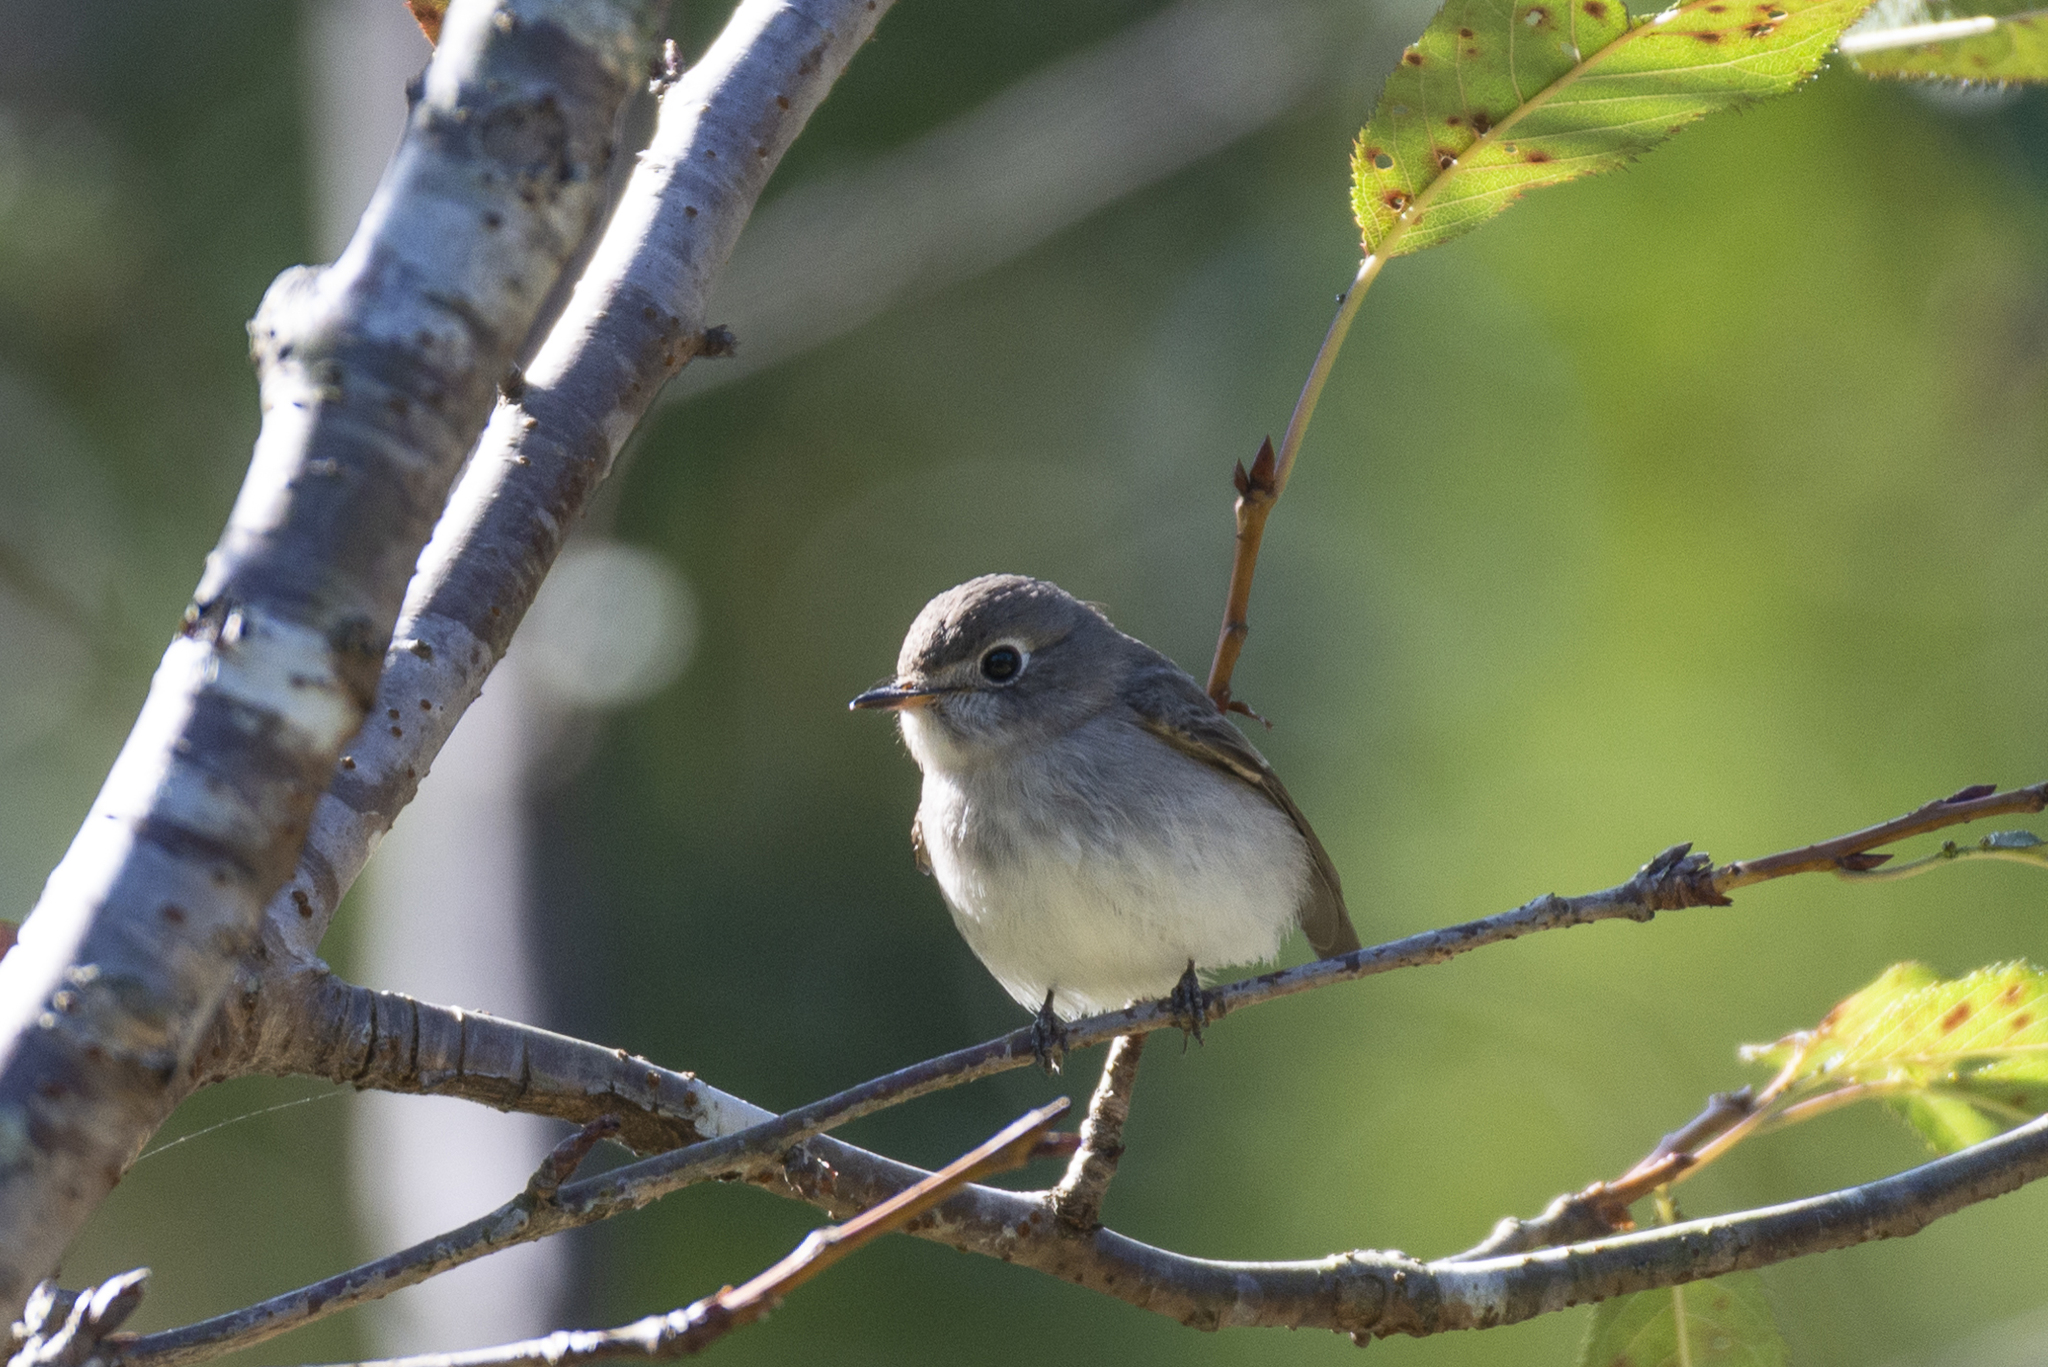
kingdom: Animalia
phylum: Chordata
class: Aves
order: Passeriformes
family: Muscicapidae
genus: Muscicapa
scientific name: Muscicapa latirostris
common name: Asian brown flycatcher
